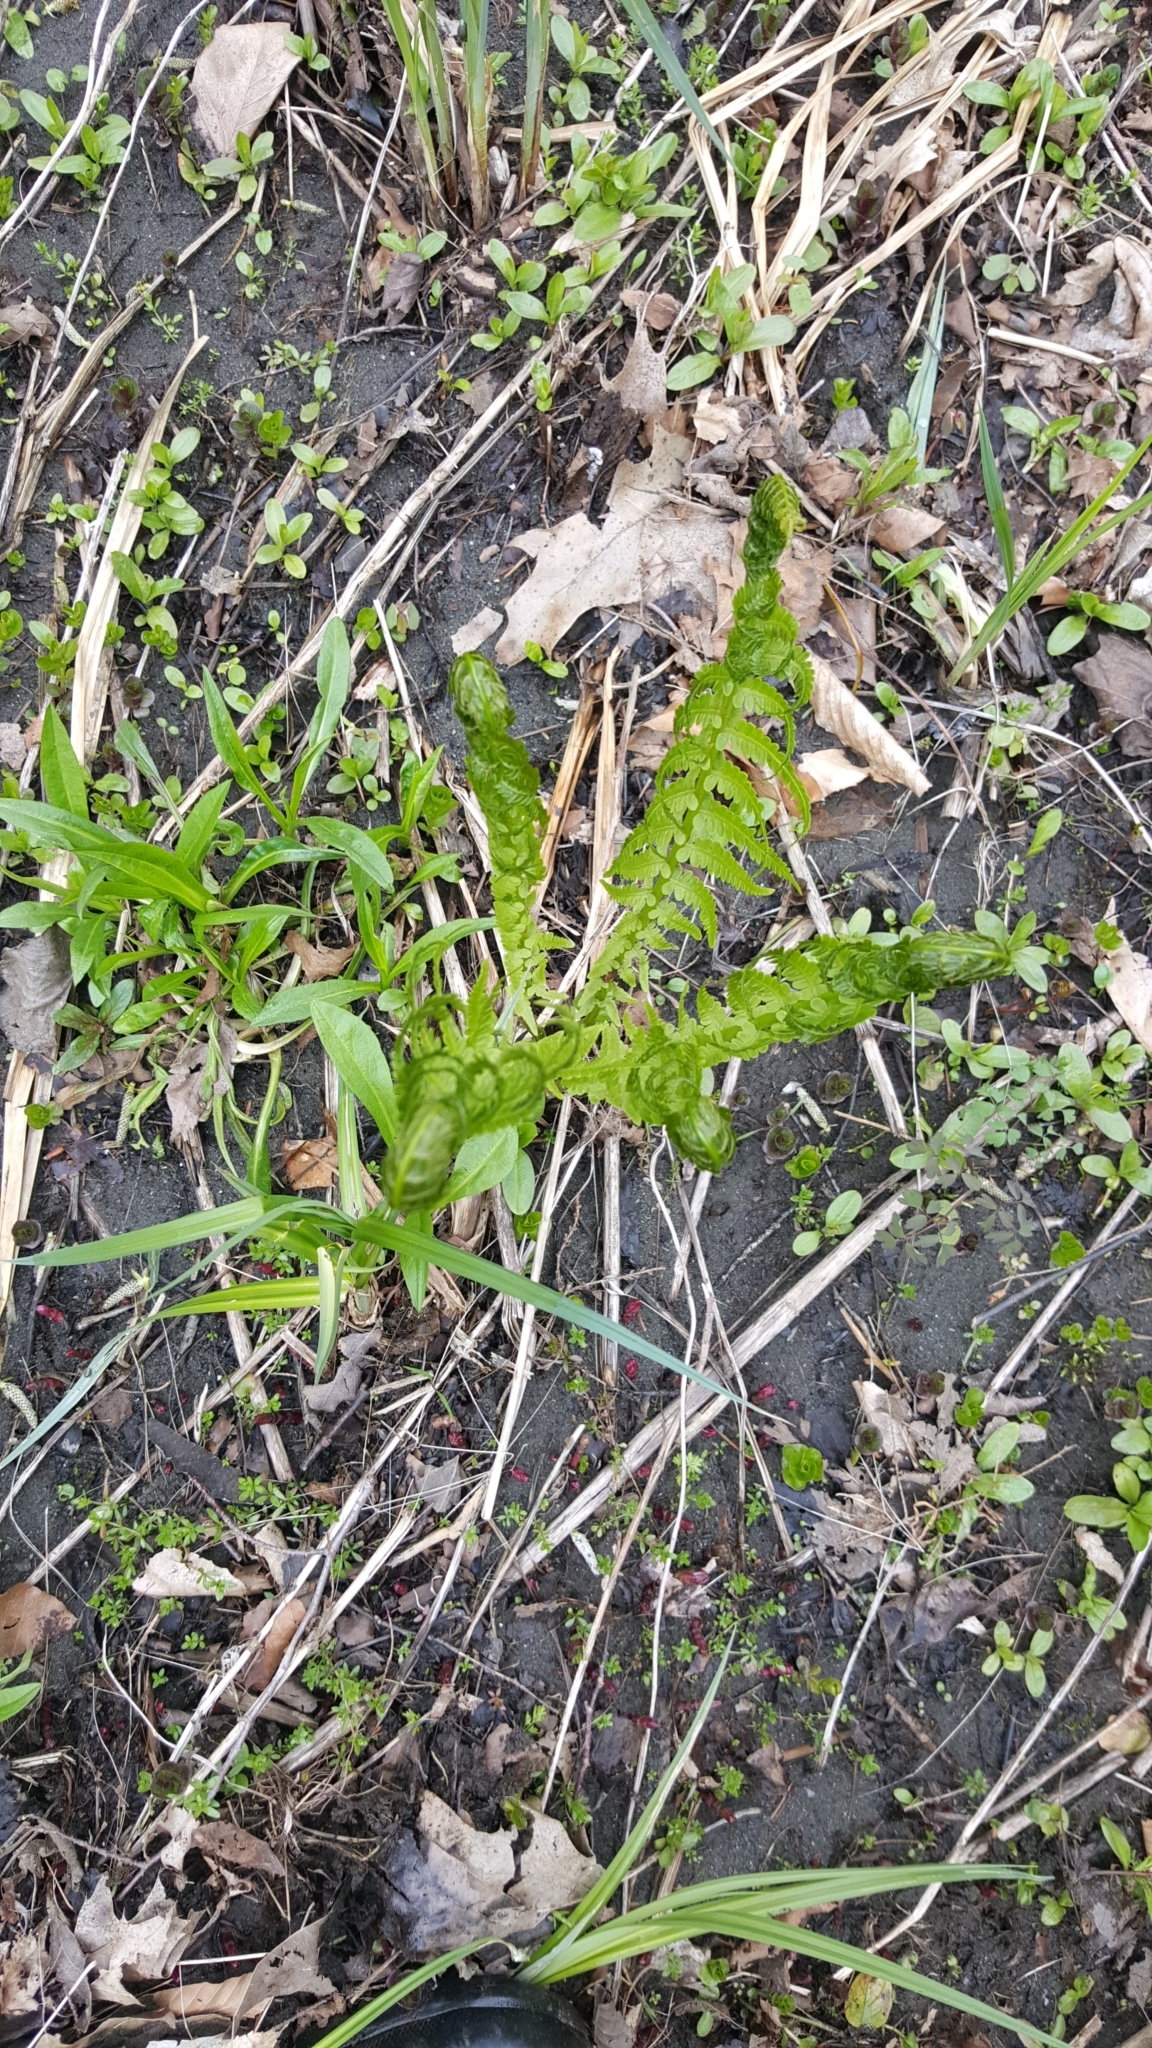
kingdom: Plantae
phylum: Tracheophyta
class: Polypodiopsida
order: Polypodiales
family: Onocleaceae
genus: Matteuccia
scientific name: Matteuccia struthiopteris
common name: Ostrich fern
